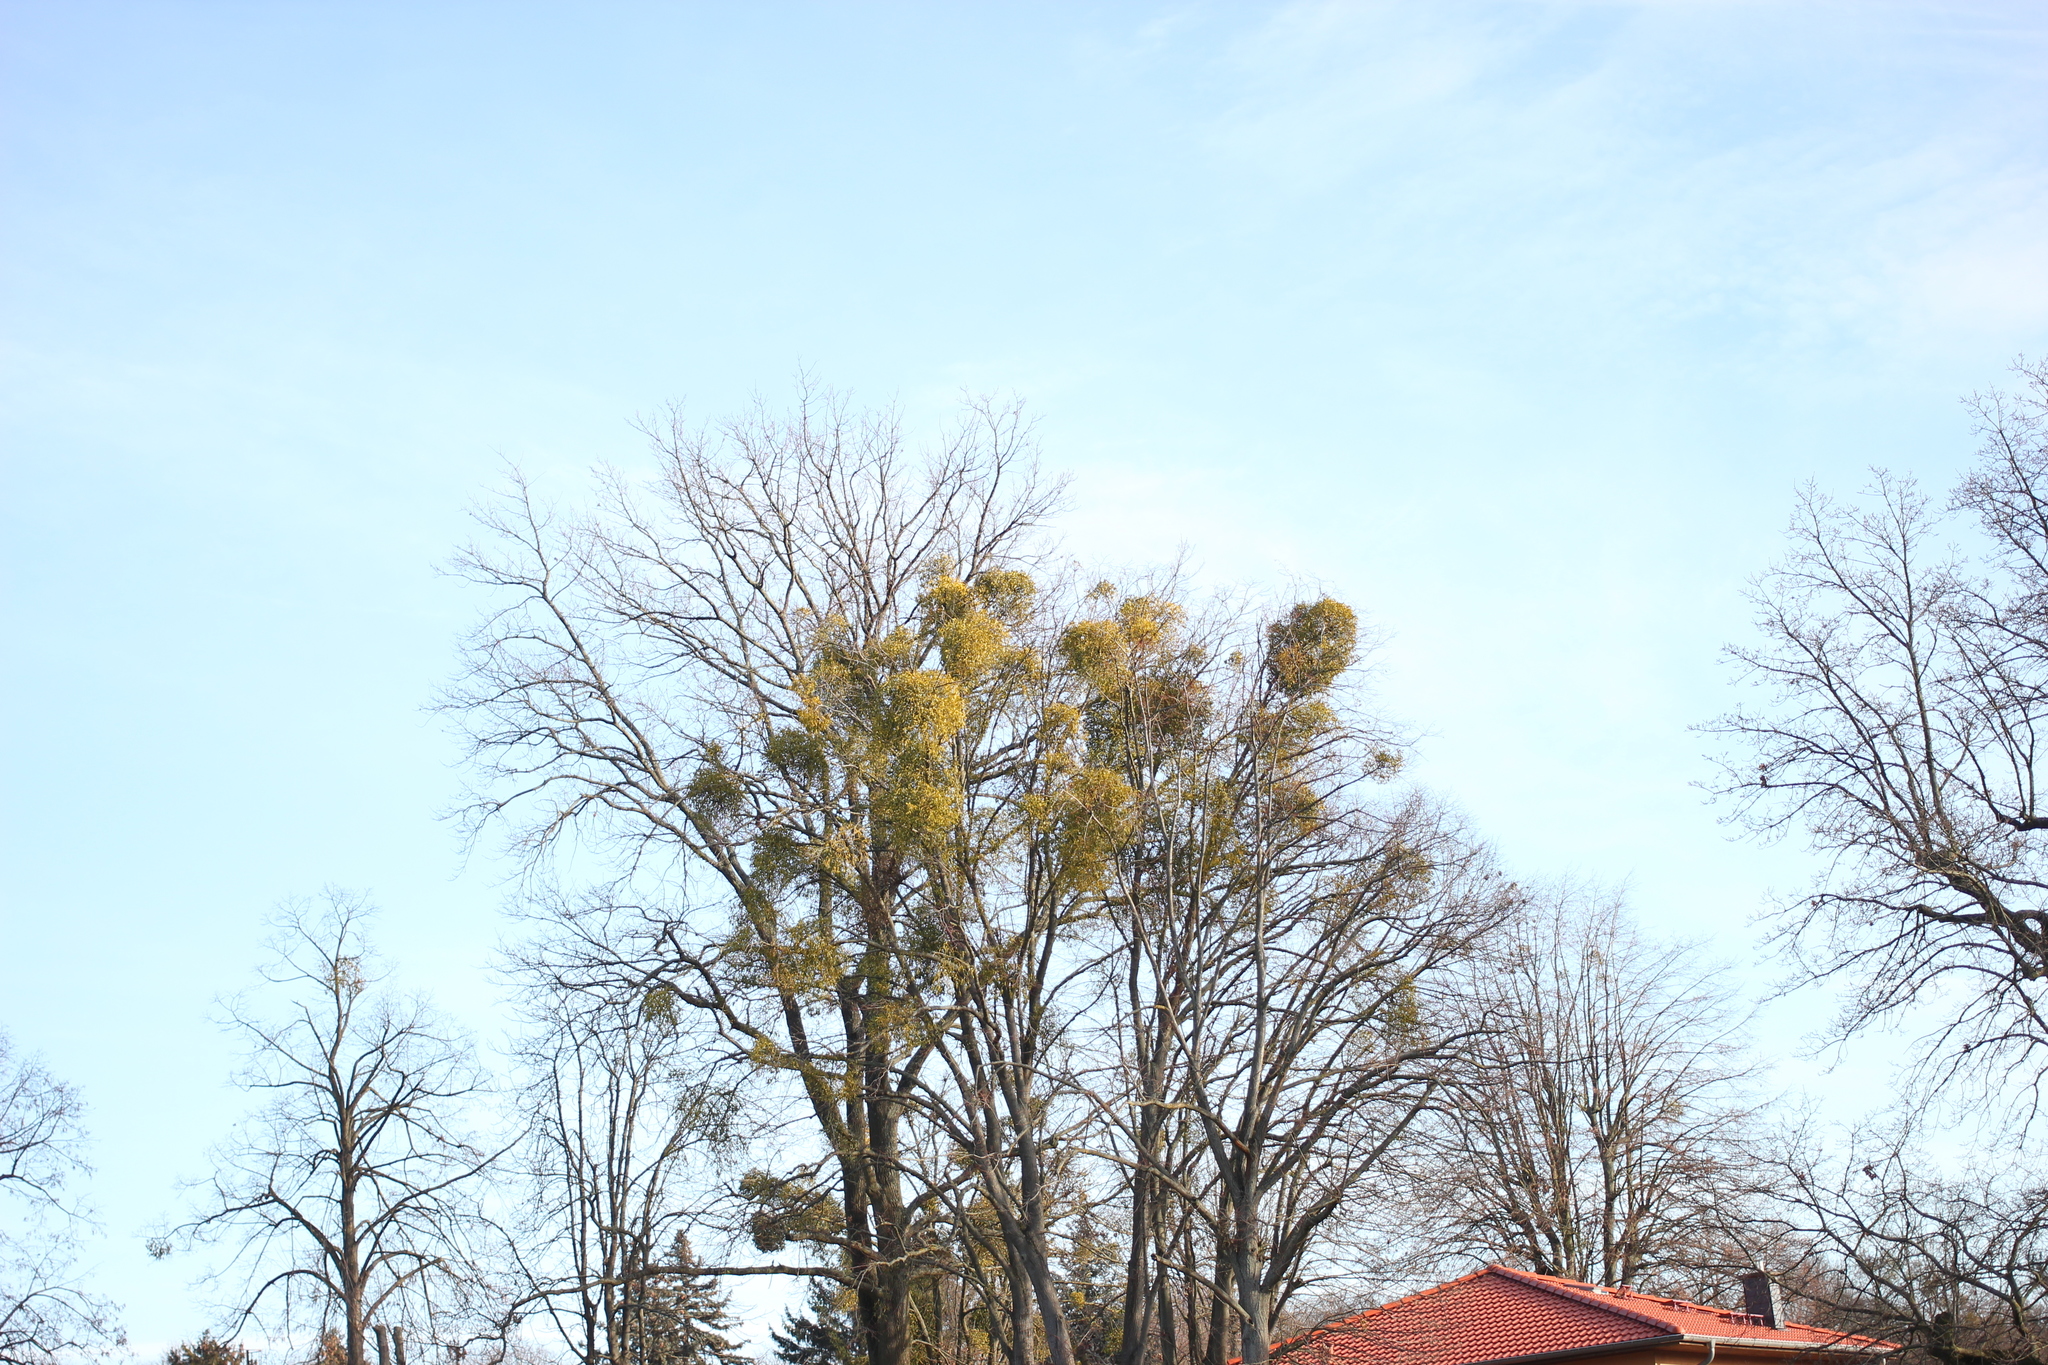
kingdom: Plantae
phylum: Tracheophyta
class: Magnoliopsida
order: Santalales
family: Viscaceae
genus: Viscum
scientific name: Viscum album
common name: Mistletoe
